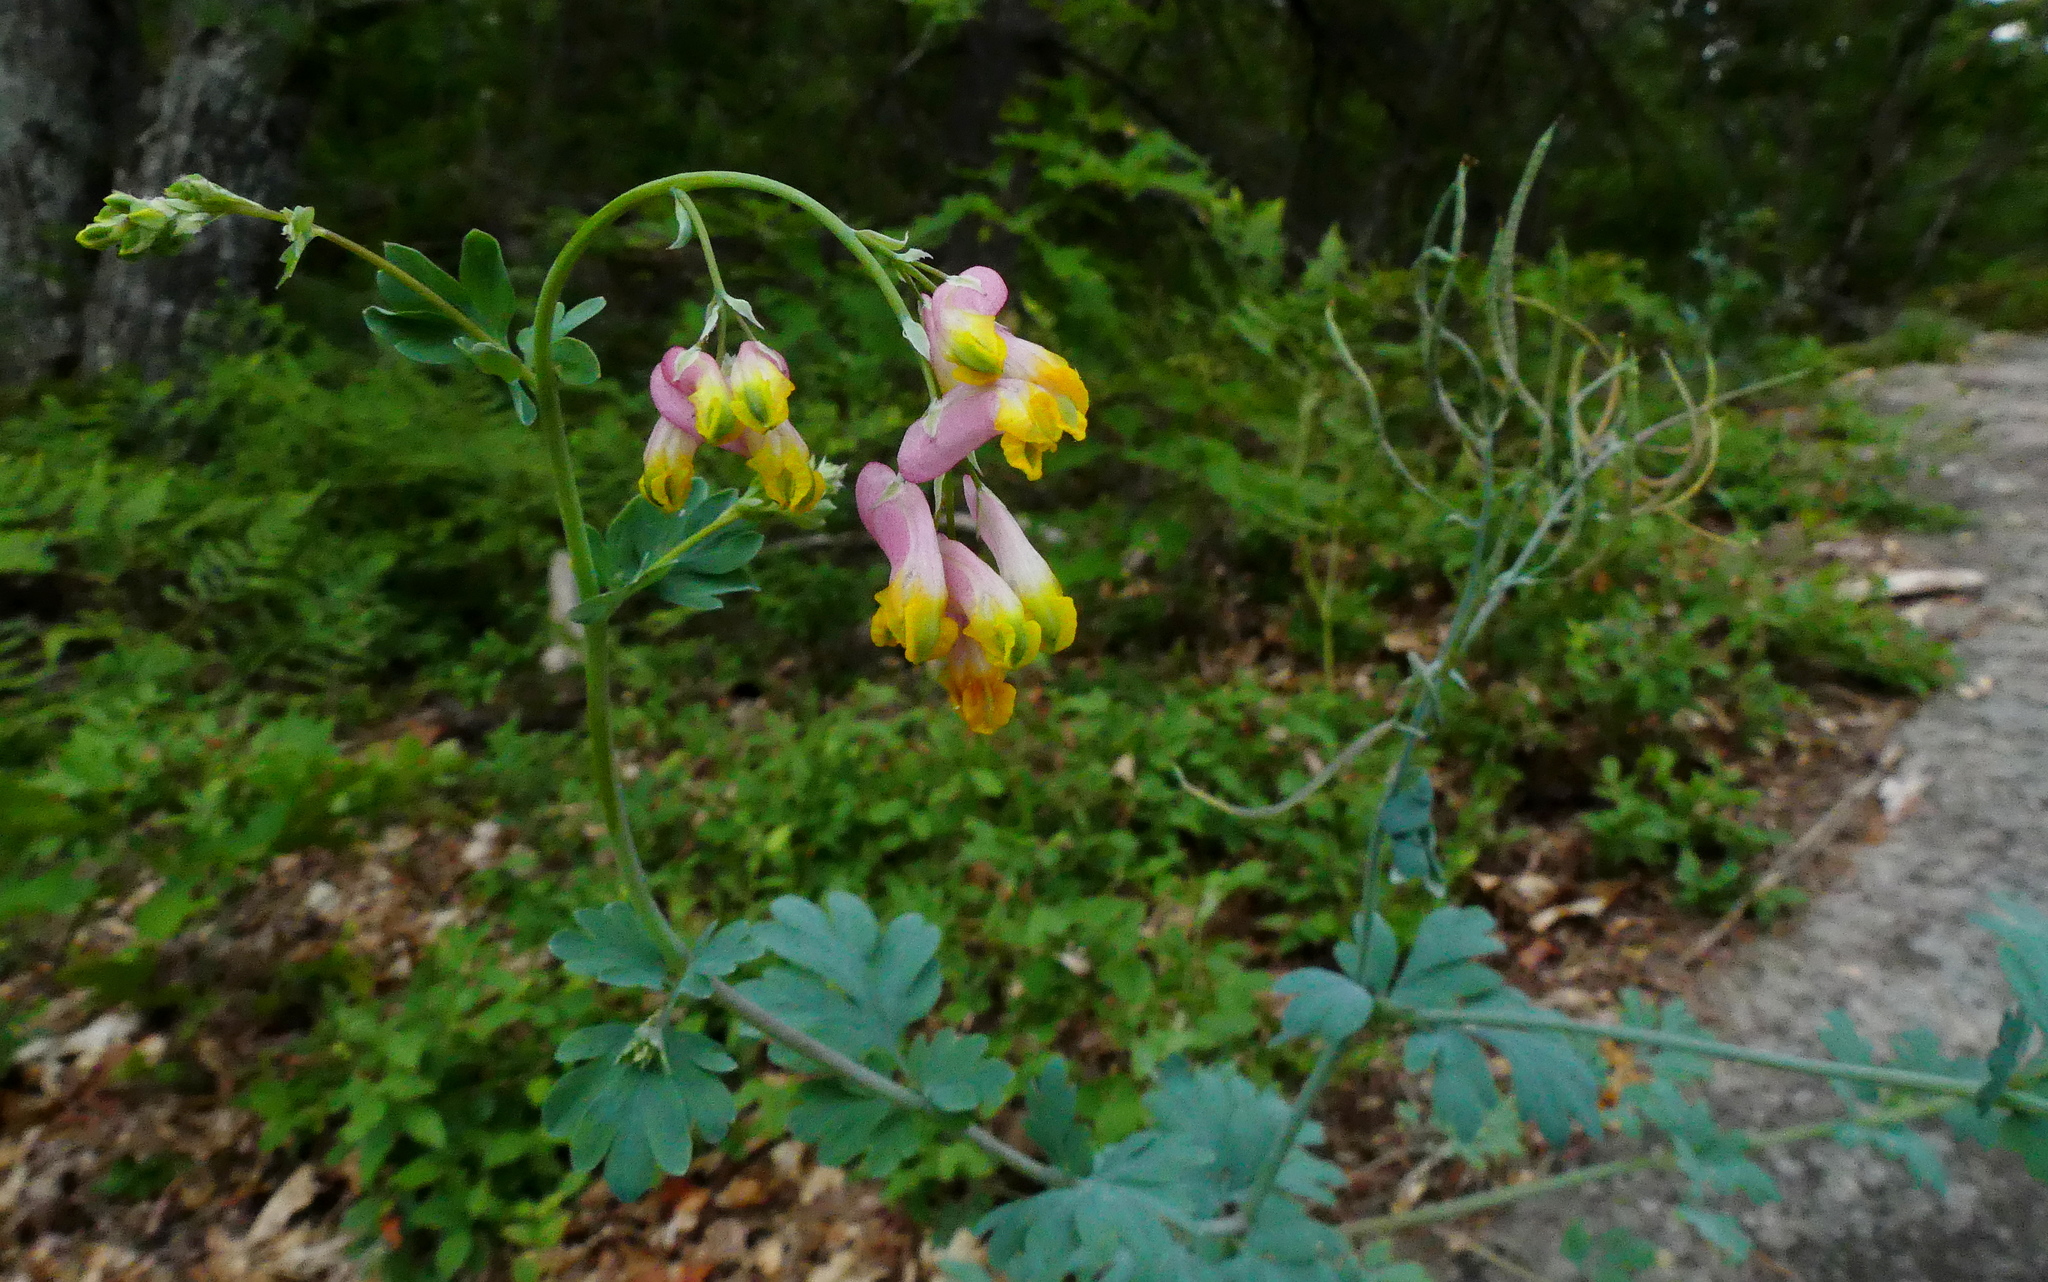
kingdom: Plantae
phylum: Tracheophyta
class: Magnoliopsida
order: Ranunculales
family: Papaveraceae
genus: Capnoides
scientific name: Capnoides sempervirens
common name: Rock harlequin
